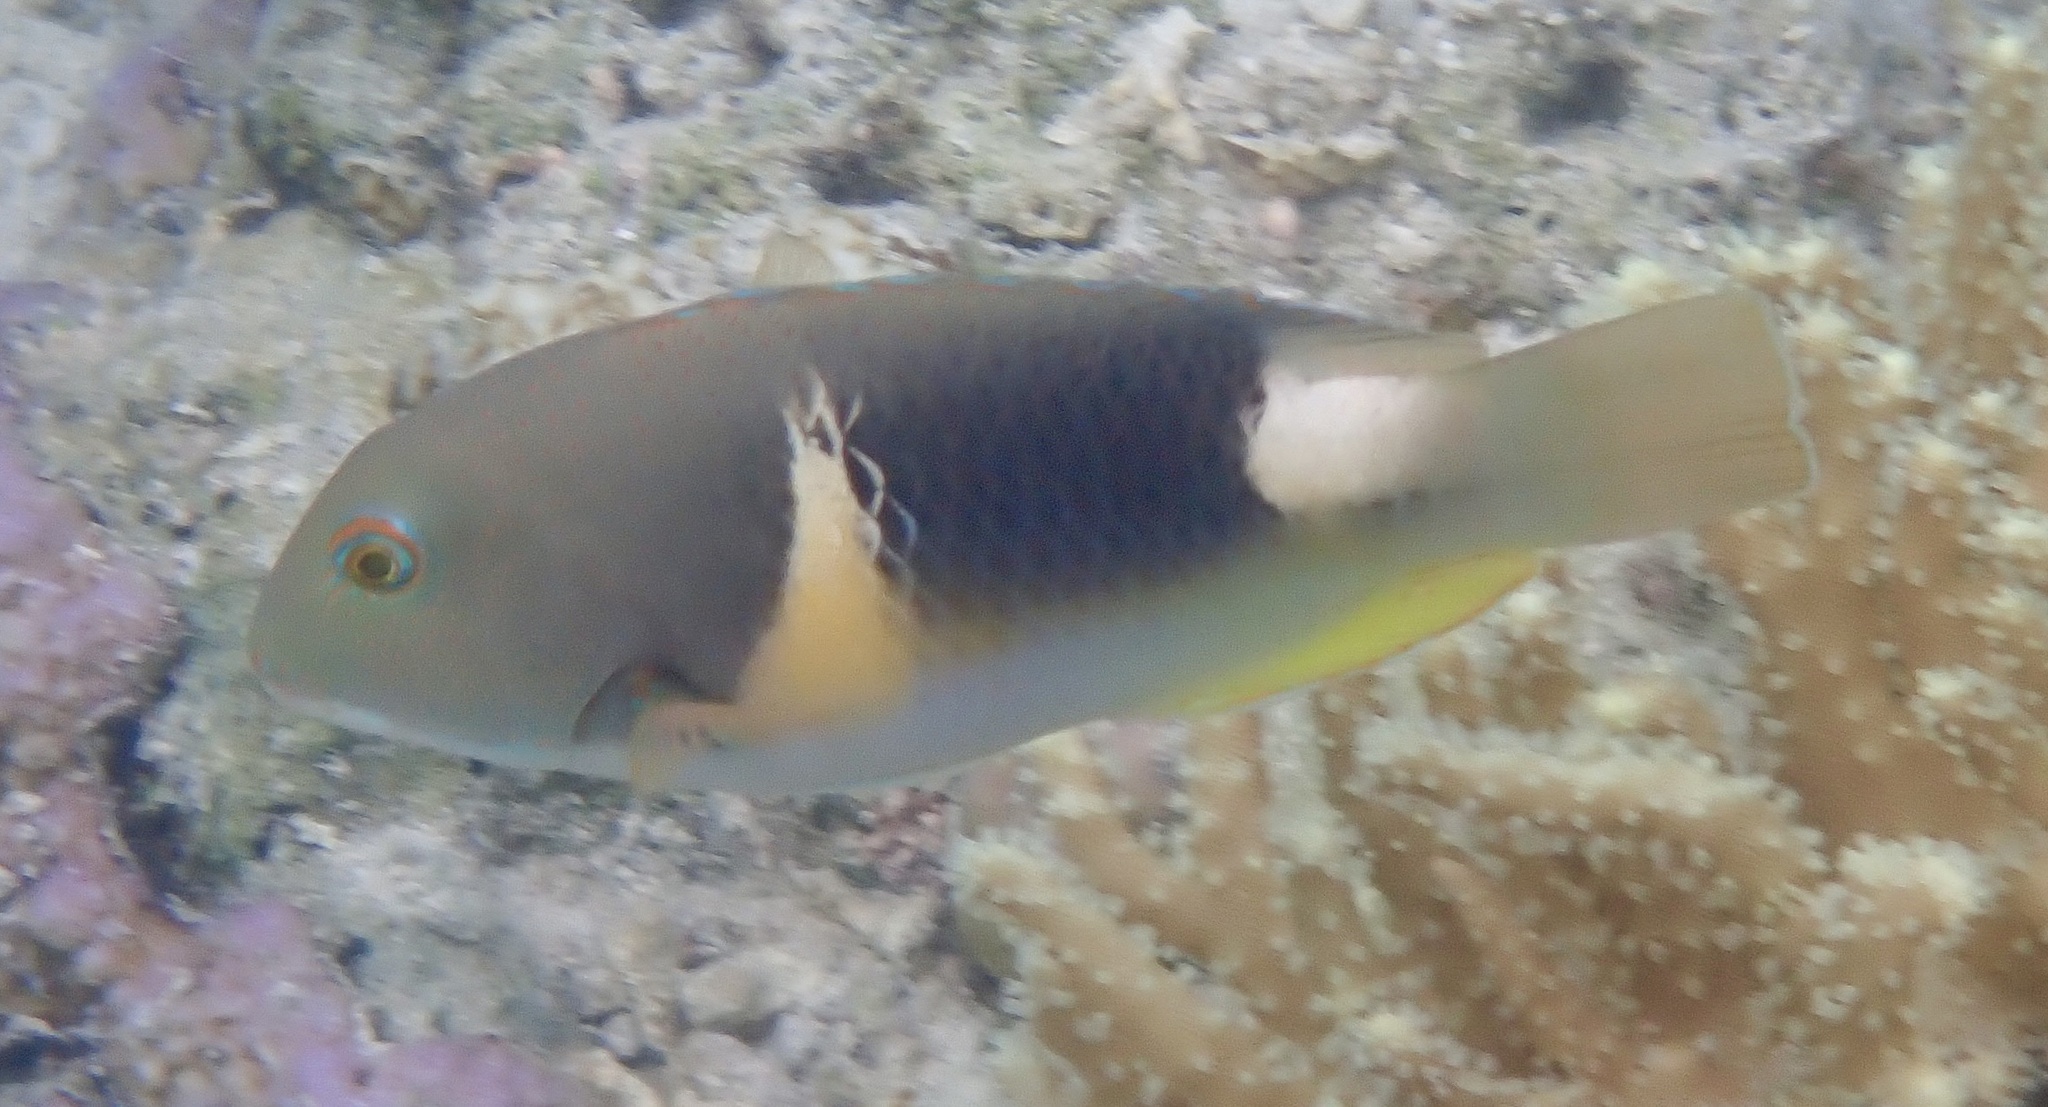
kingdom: Animalia
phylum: Chordata
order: Perciformes
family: Labridae
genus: Choerodon
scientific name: Choerodon anchorago
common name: Anchor tuskfish
